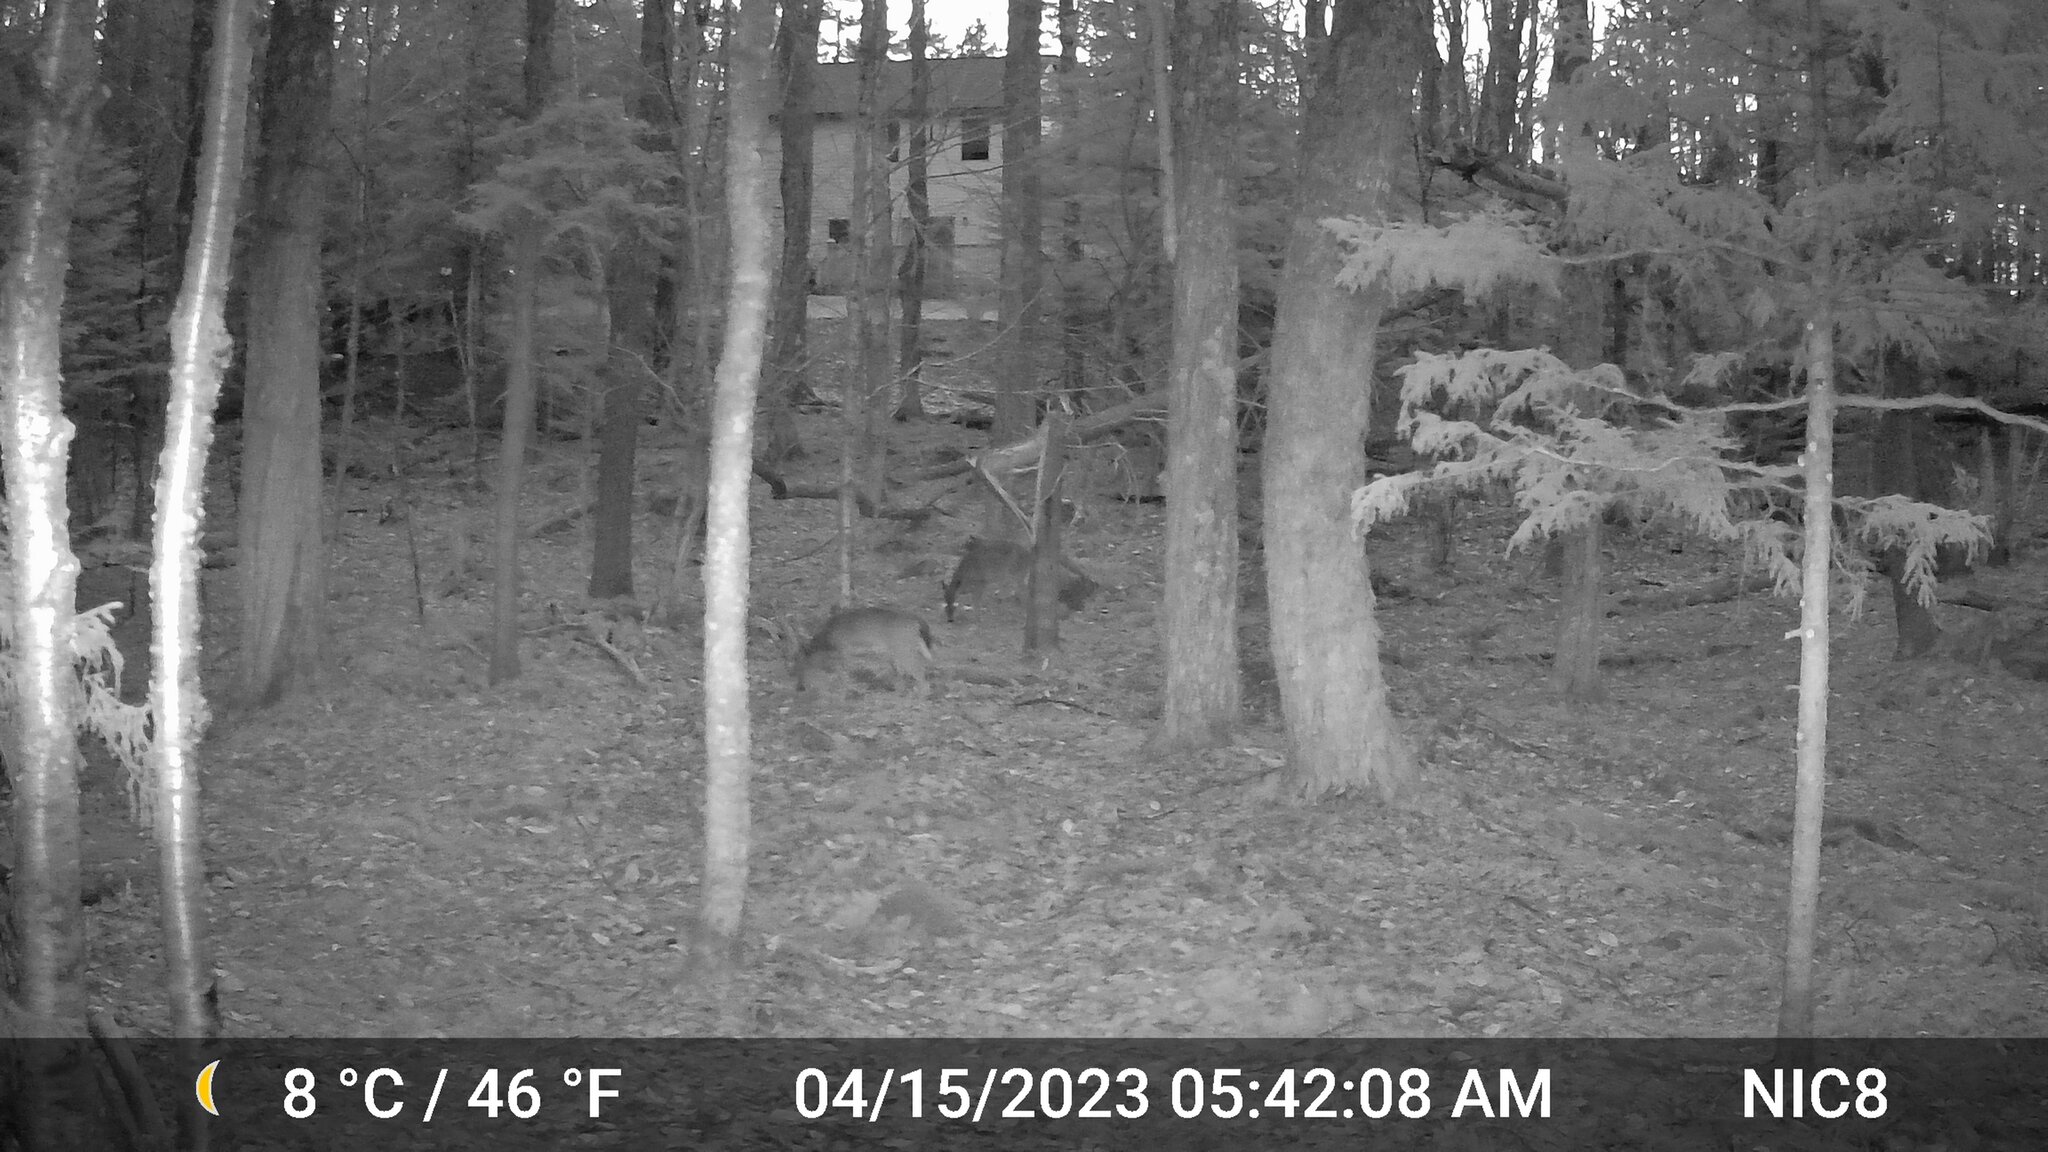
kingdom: Animalia
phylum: Chordata
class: Mammalia
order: Artiodactyla
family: Cervidae
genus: Odocoileus
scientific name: Odocoileus virginianus
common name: White-tailed deer
